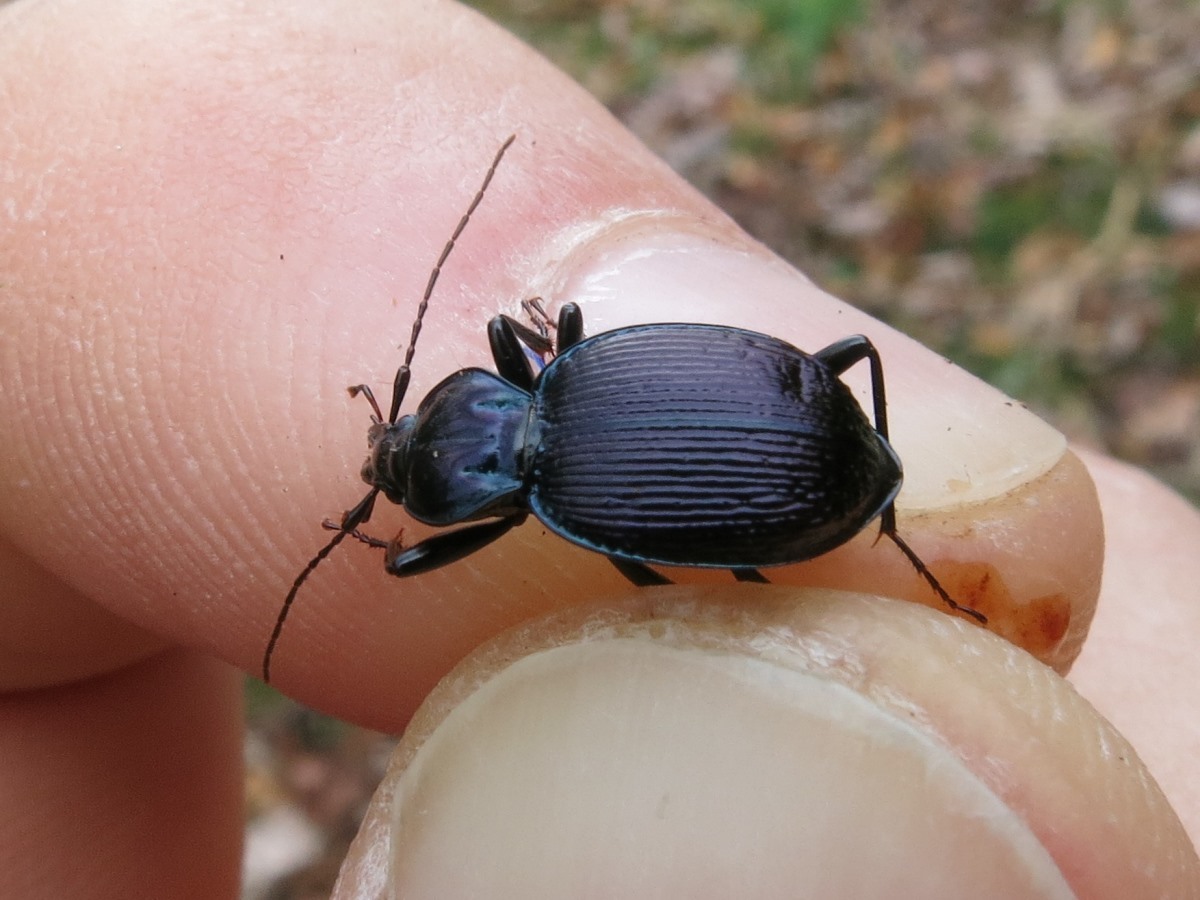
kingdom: Animalia
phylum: Arthropoda
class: Insecta
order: Coleoptera
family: Carabidae
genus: Sphaeroderus
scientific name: Sphaeroderus canadensis
